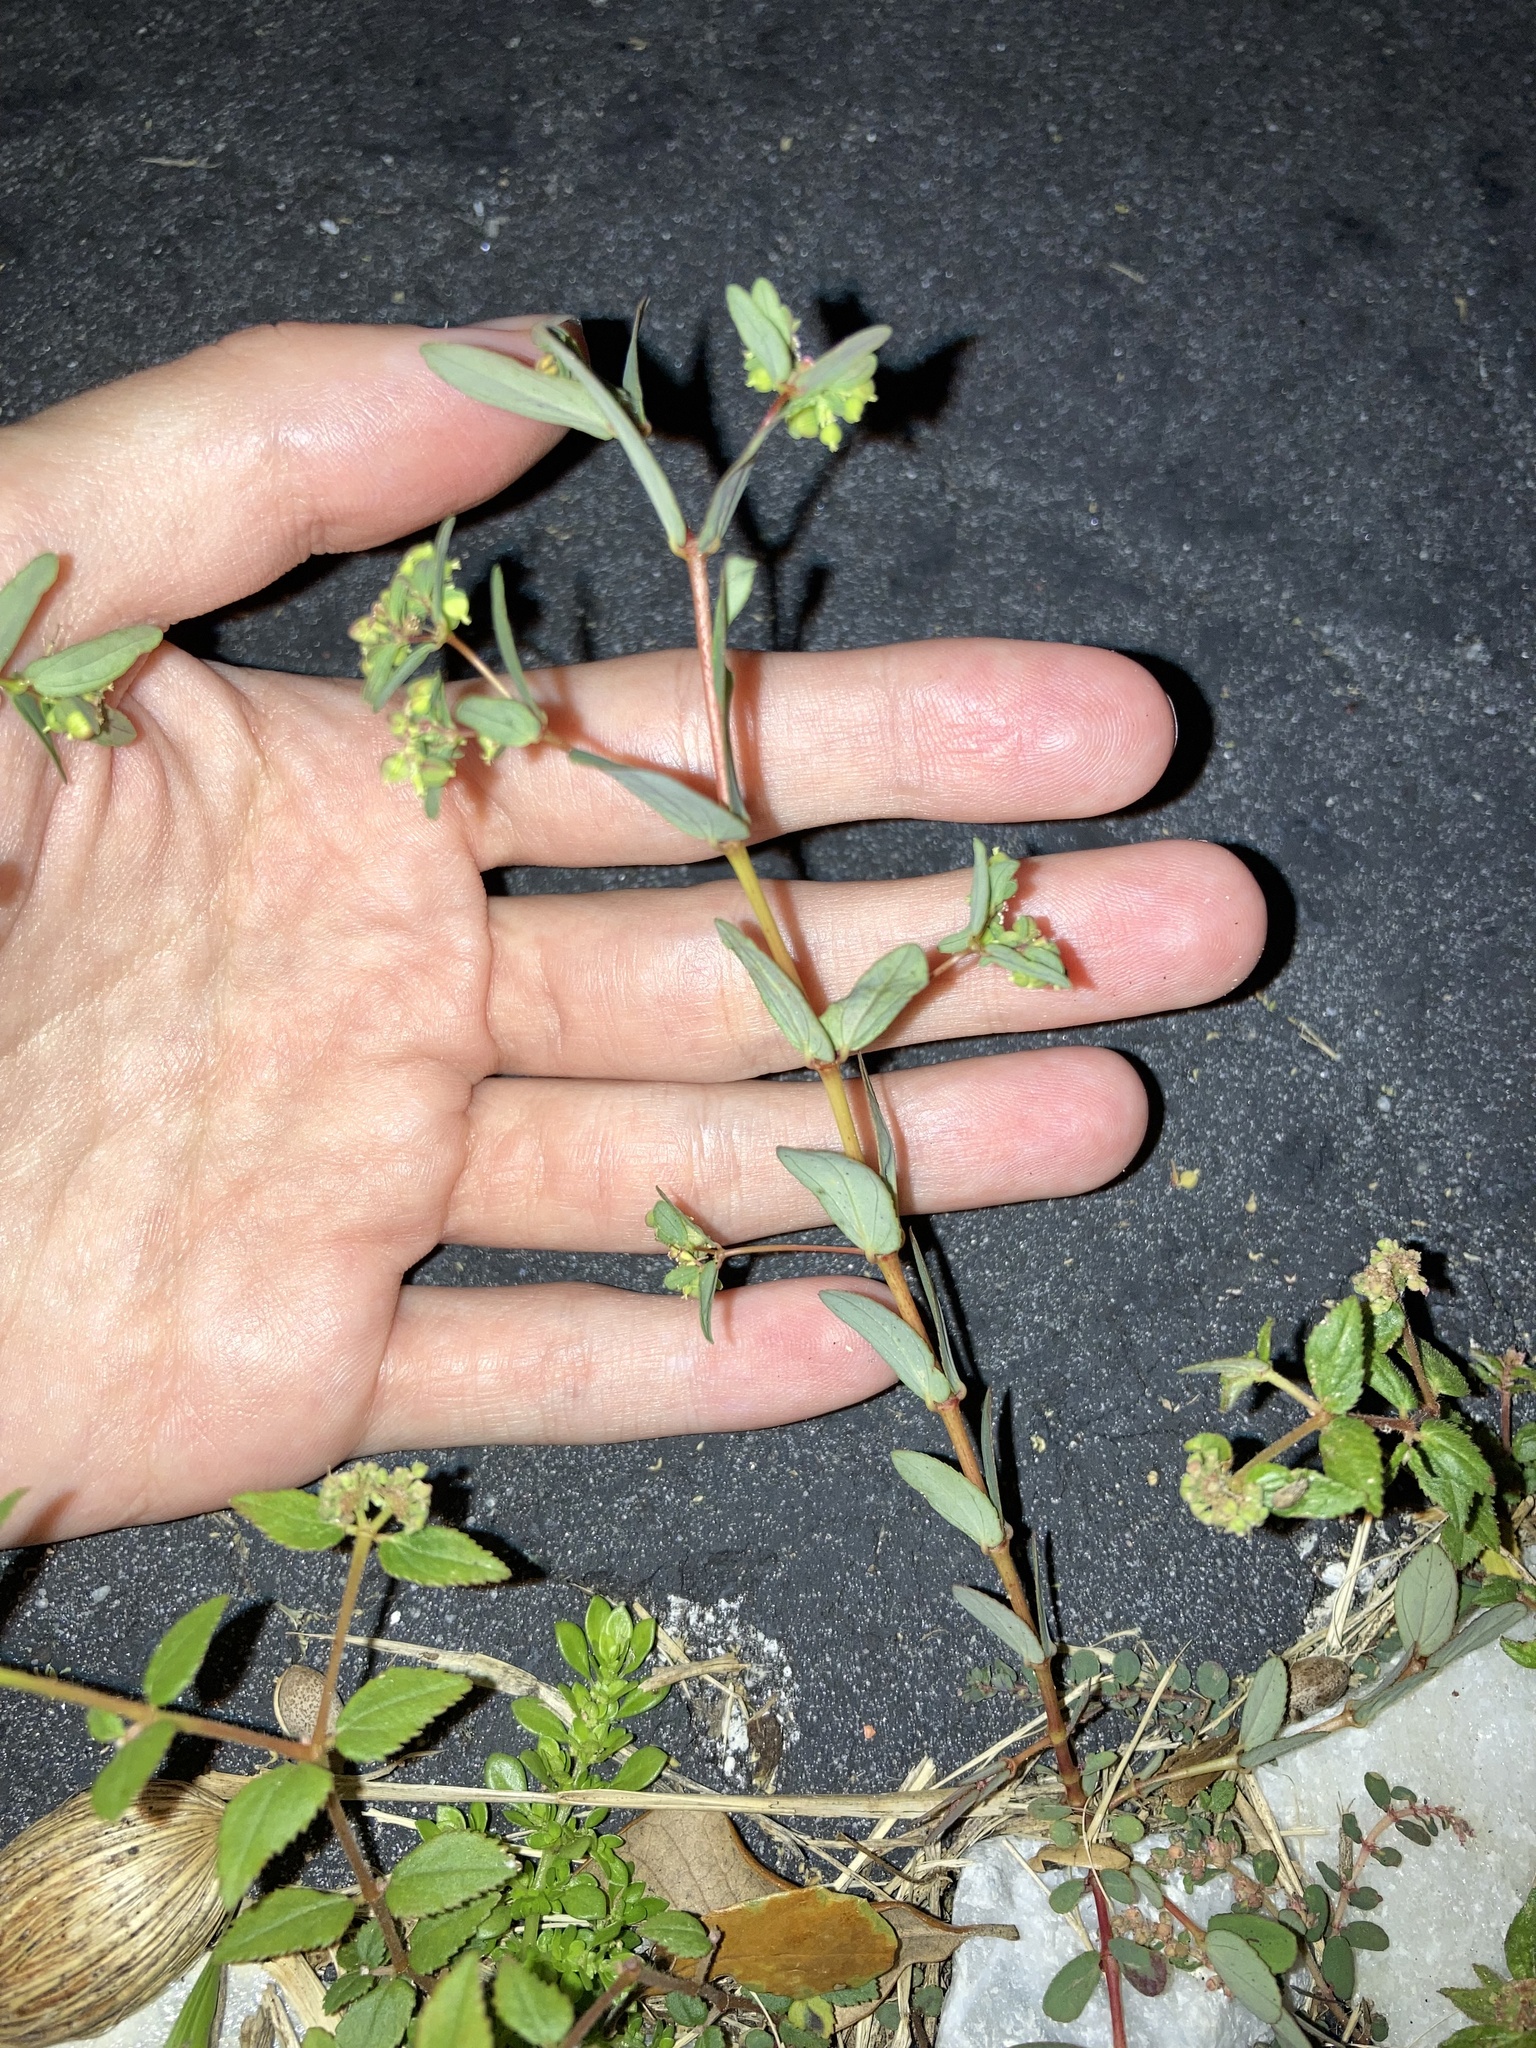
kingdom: Plantae
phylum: Tracheophyta
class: Magnoliopsida
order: Malpighiales
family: Euphorbiaceae
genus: Euphorbia
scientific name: Euphorbia hyssopifolia
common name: Hyssopleaf sandmat
